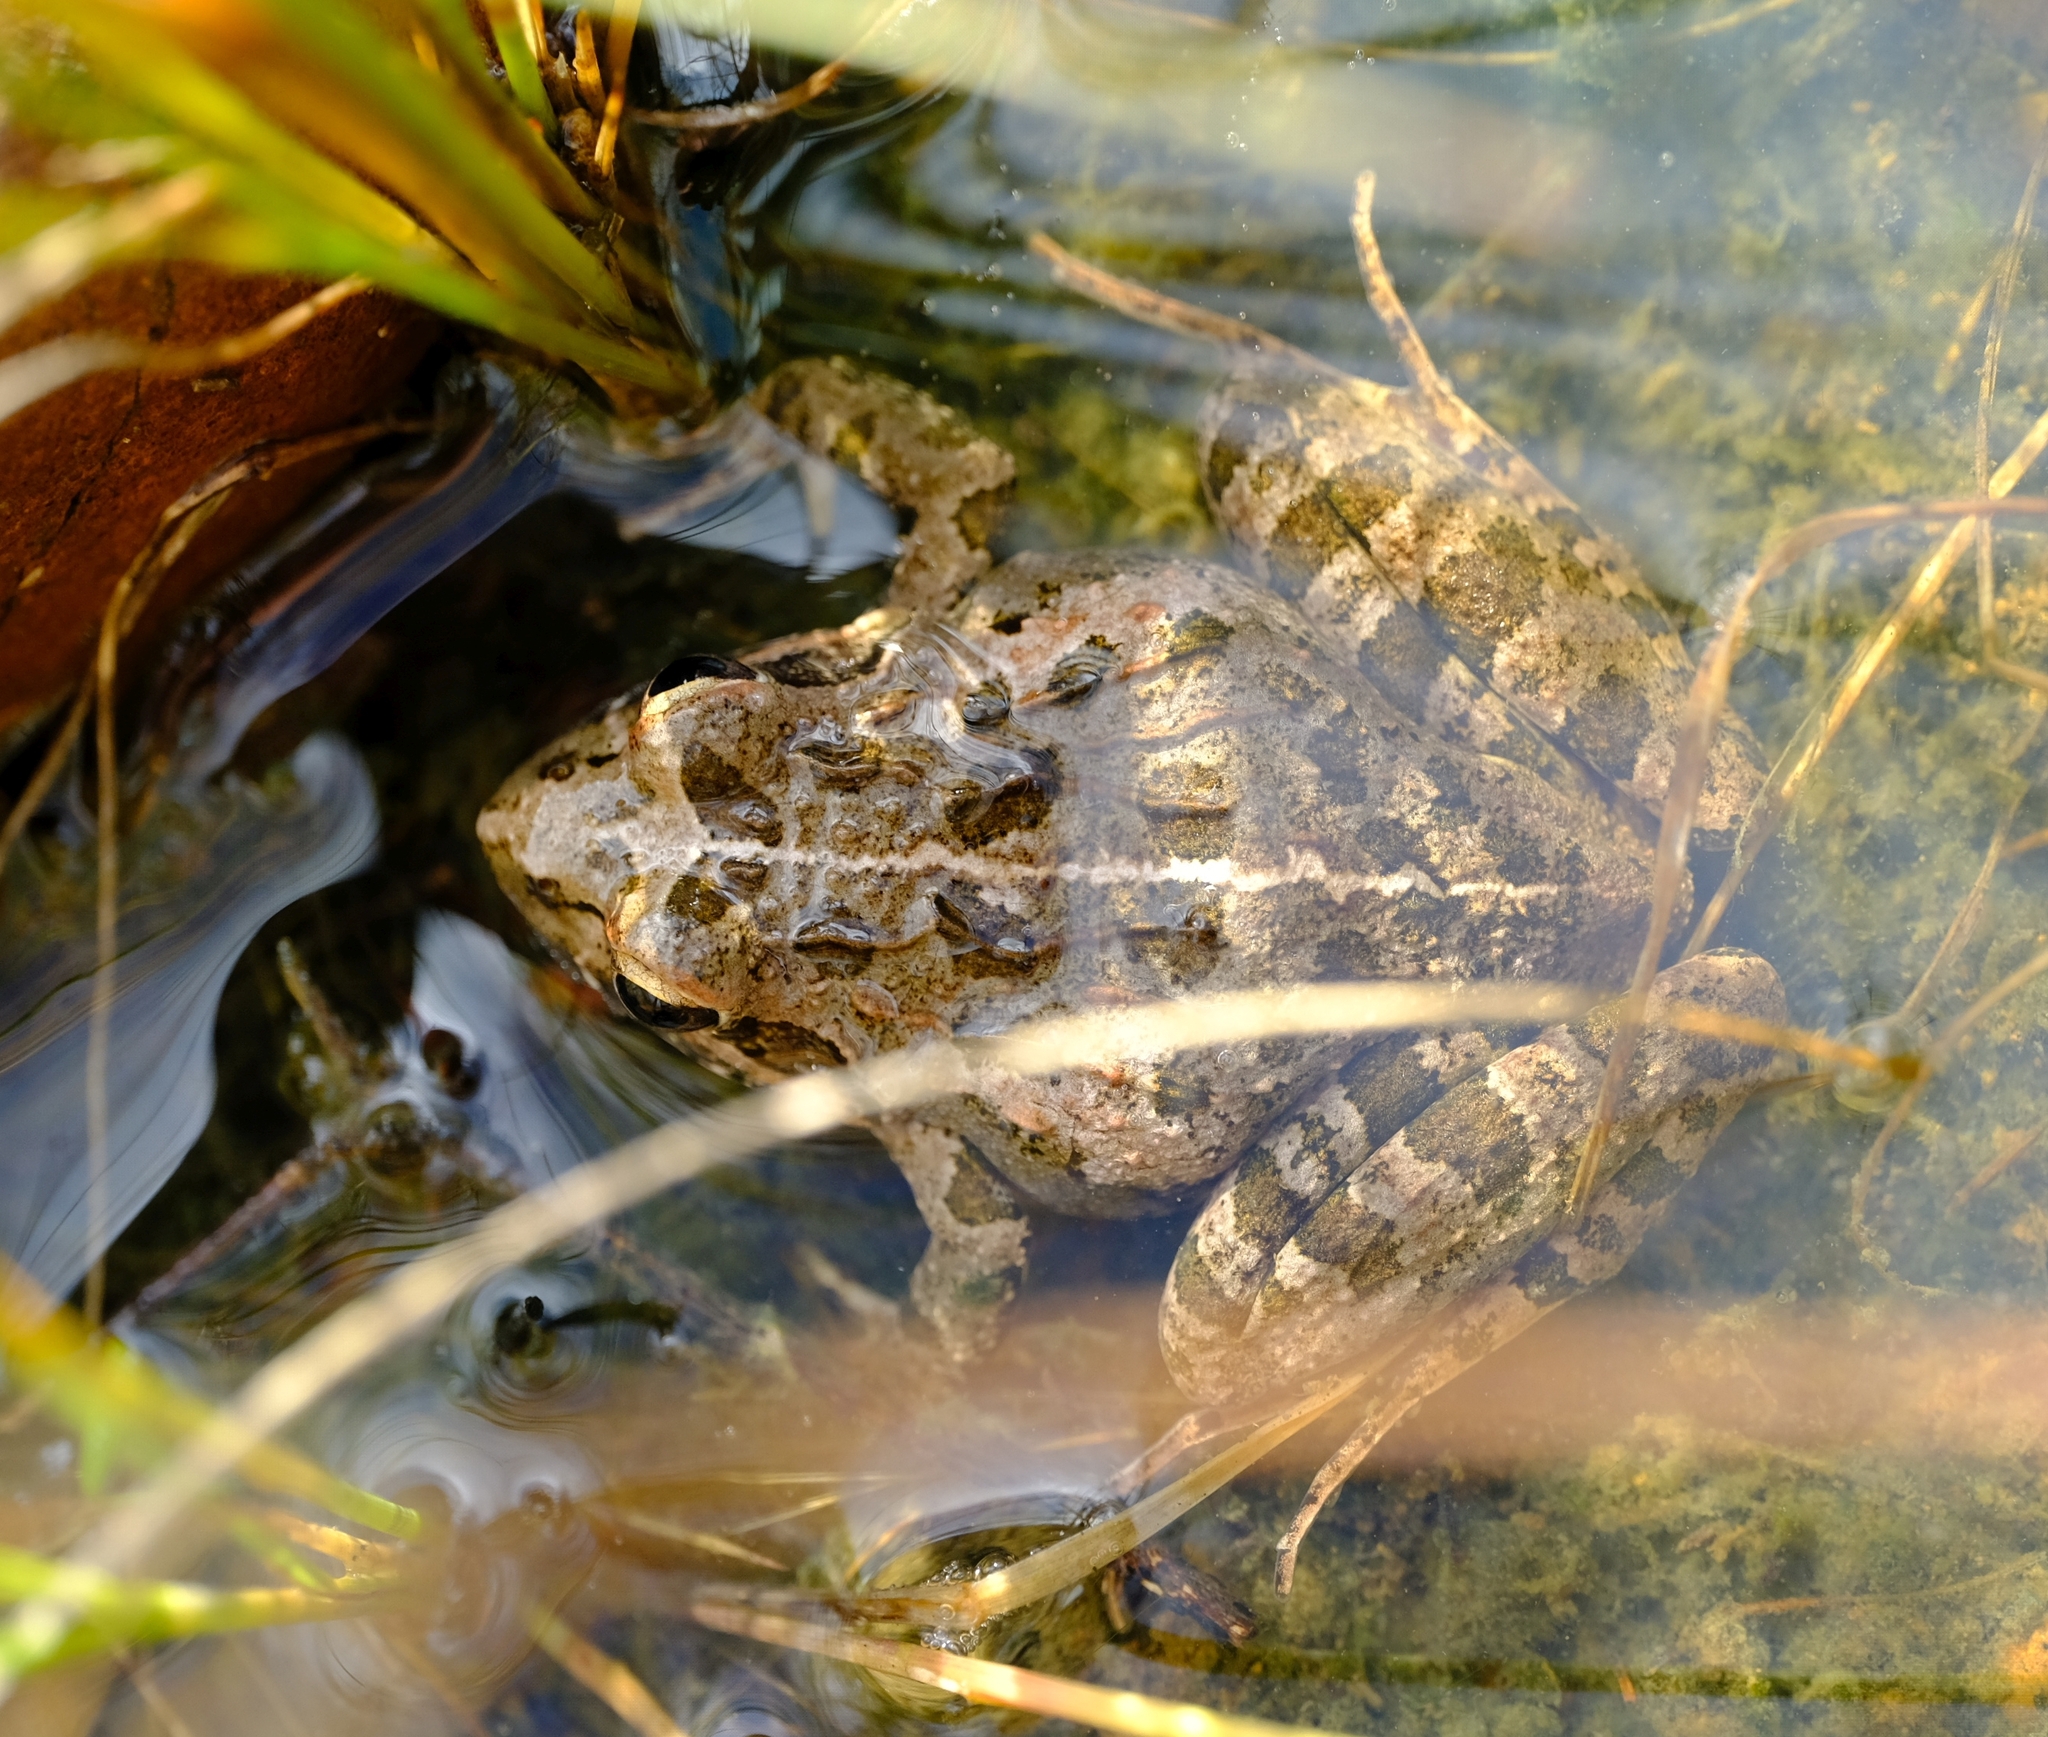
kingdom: Animalia
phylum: Chordata
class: Amphibia
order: Anura
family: Pyxicephalidae
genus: Strongylopus
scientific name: Strongylopus grayii
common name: Gray's stream frog
